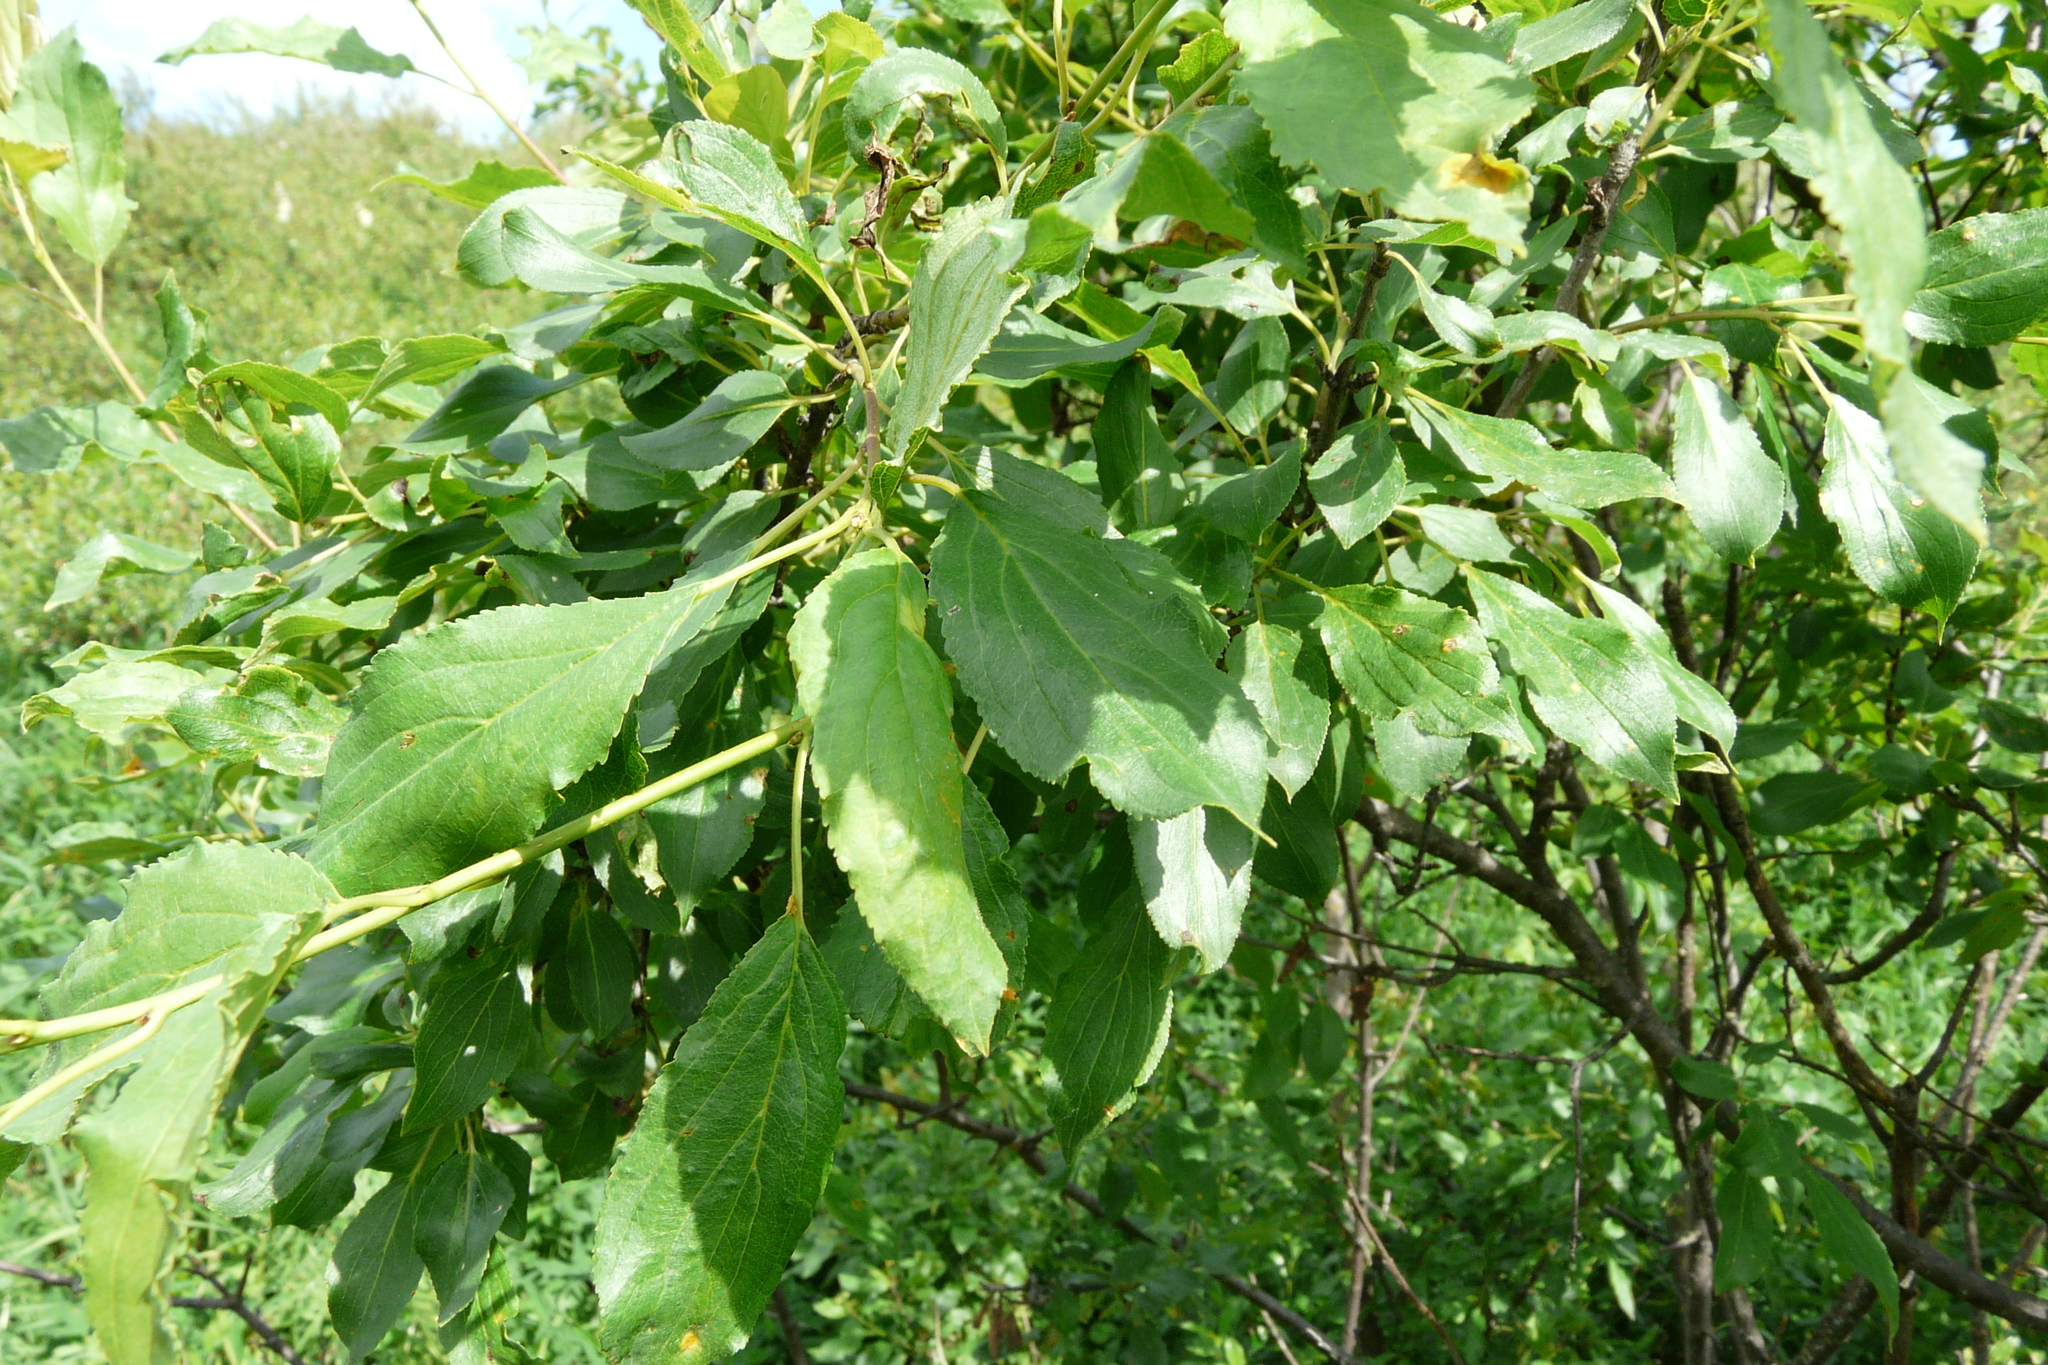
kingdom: Plantae
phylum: Tracheophyta
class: Magnoliopsida
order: Rosales
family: Rhamnaceae
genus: Rhamnus
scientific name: Rhamnus cathartica
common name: Common buckthorn
